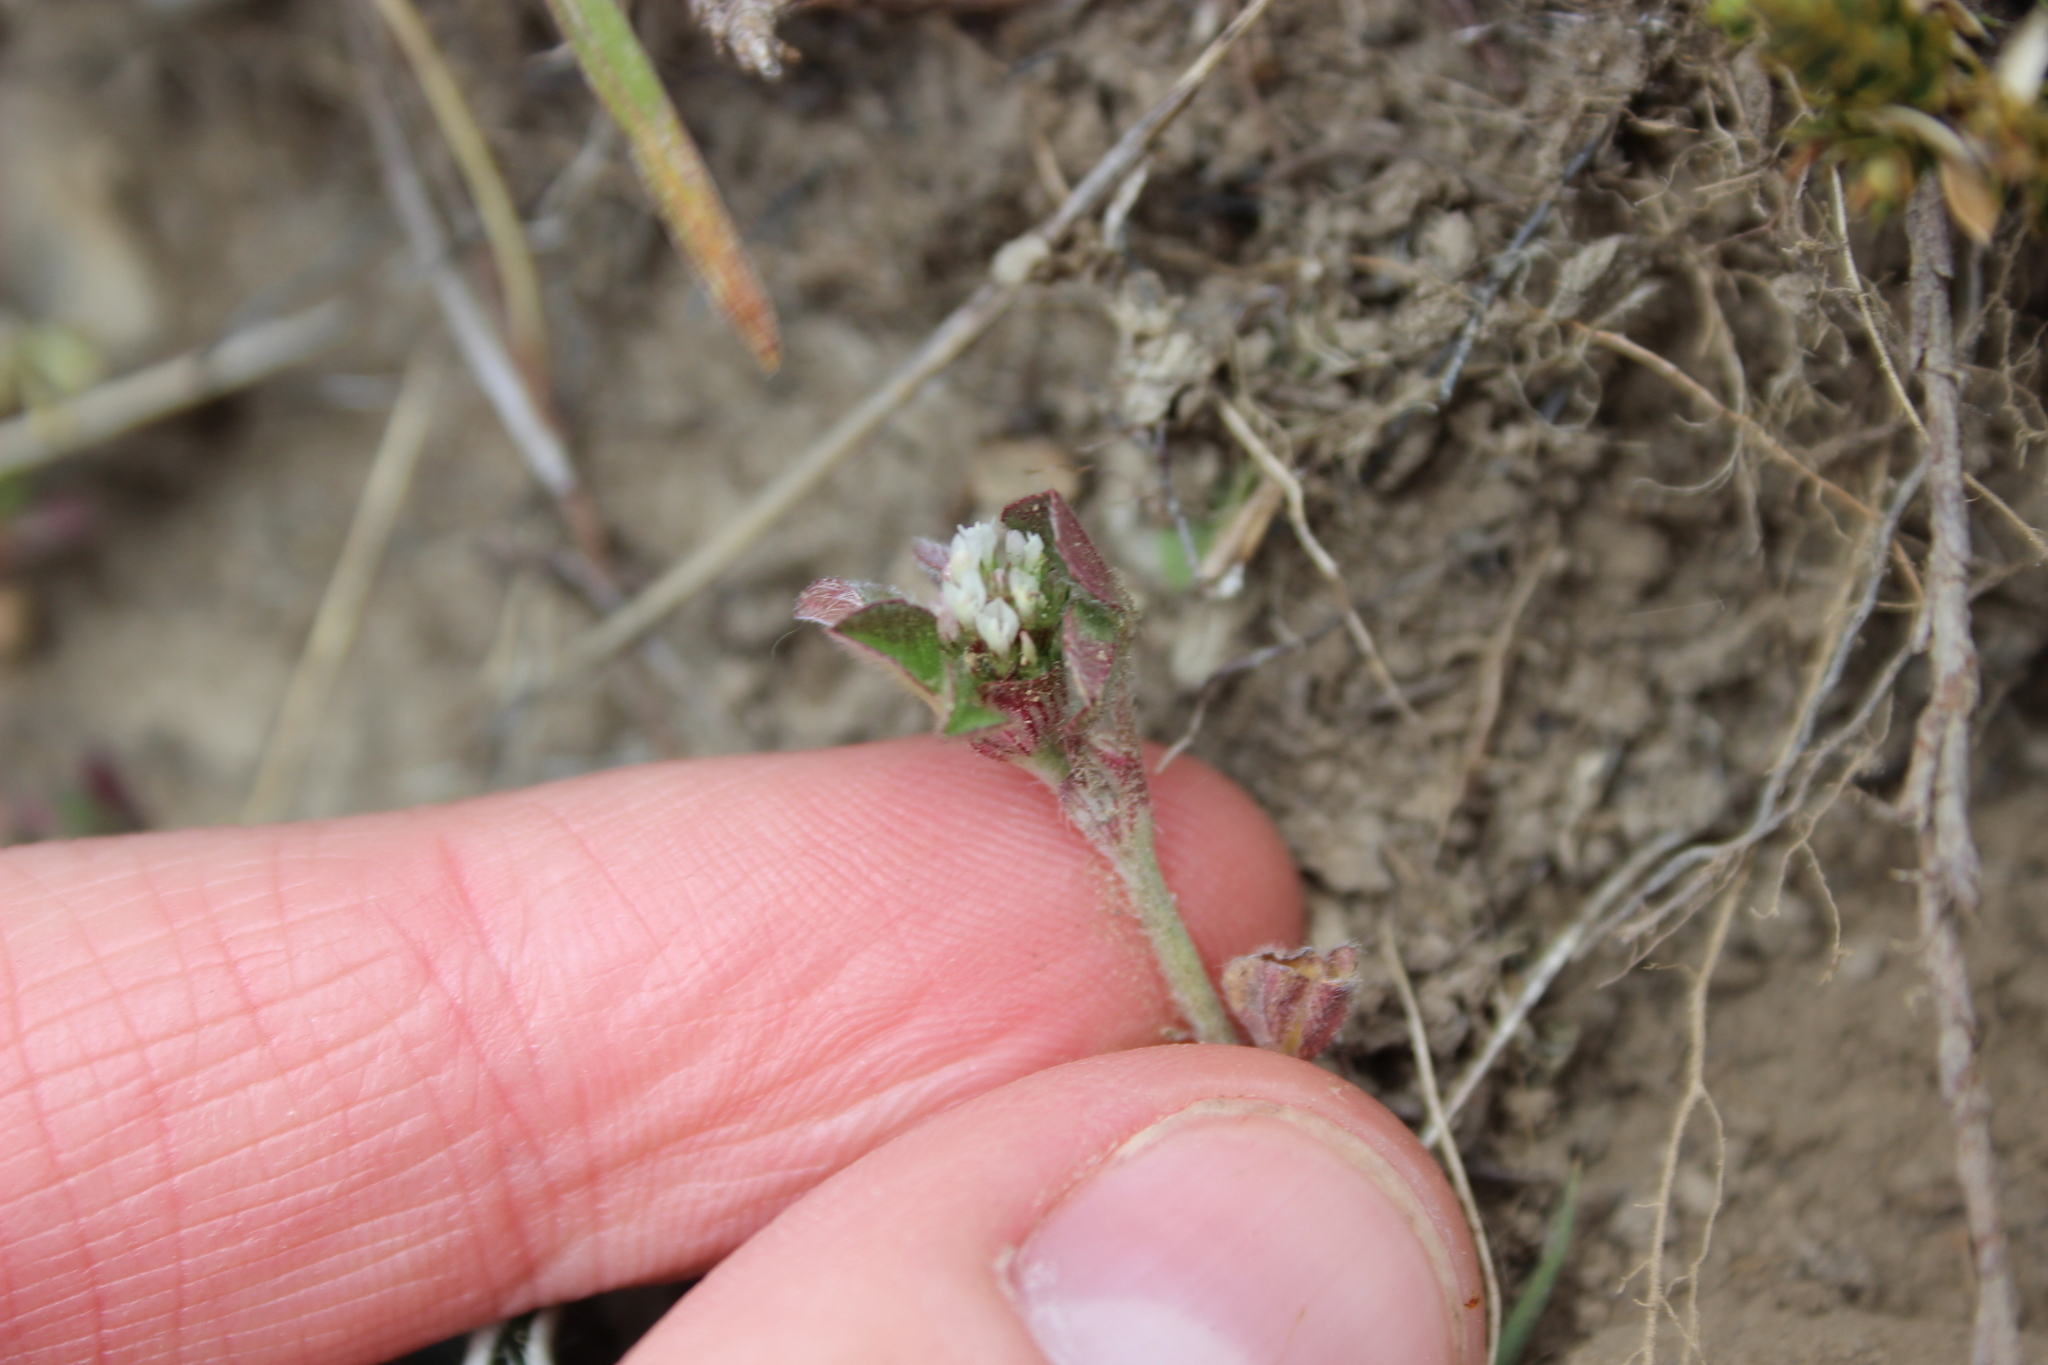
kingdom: Plantae
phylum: Tracheophyta
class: Magnoliopsida
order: Fabales
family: Fabaceae
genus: Trifolium
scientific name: Trifolium striatum
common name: Knotted clover
